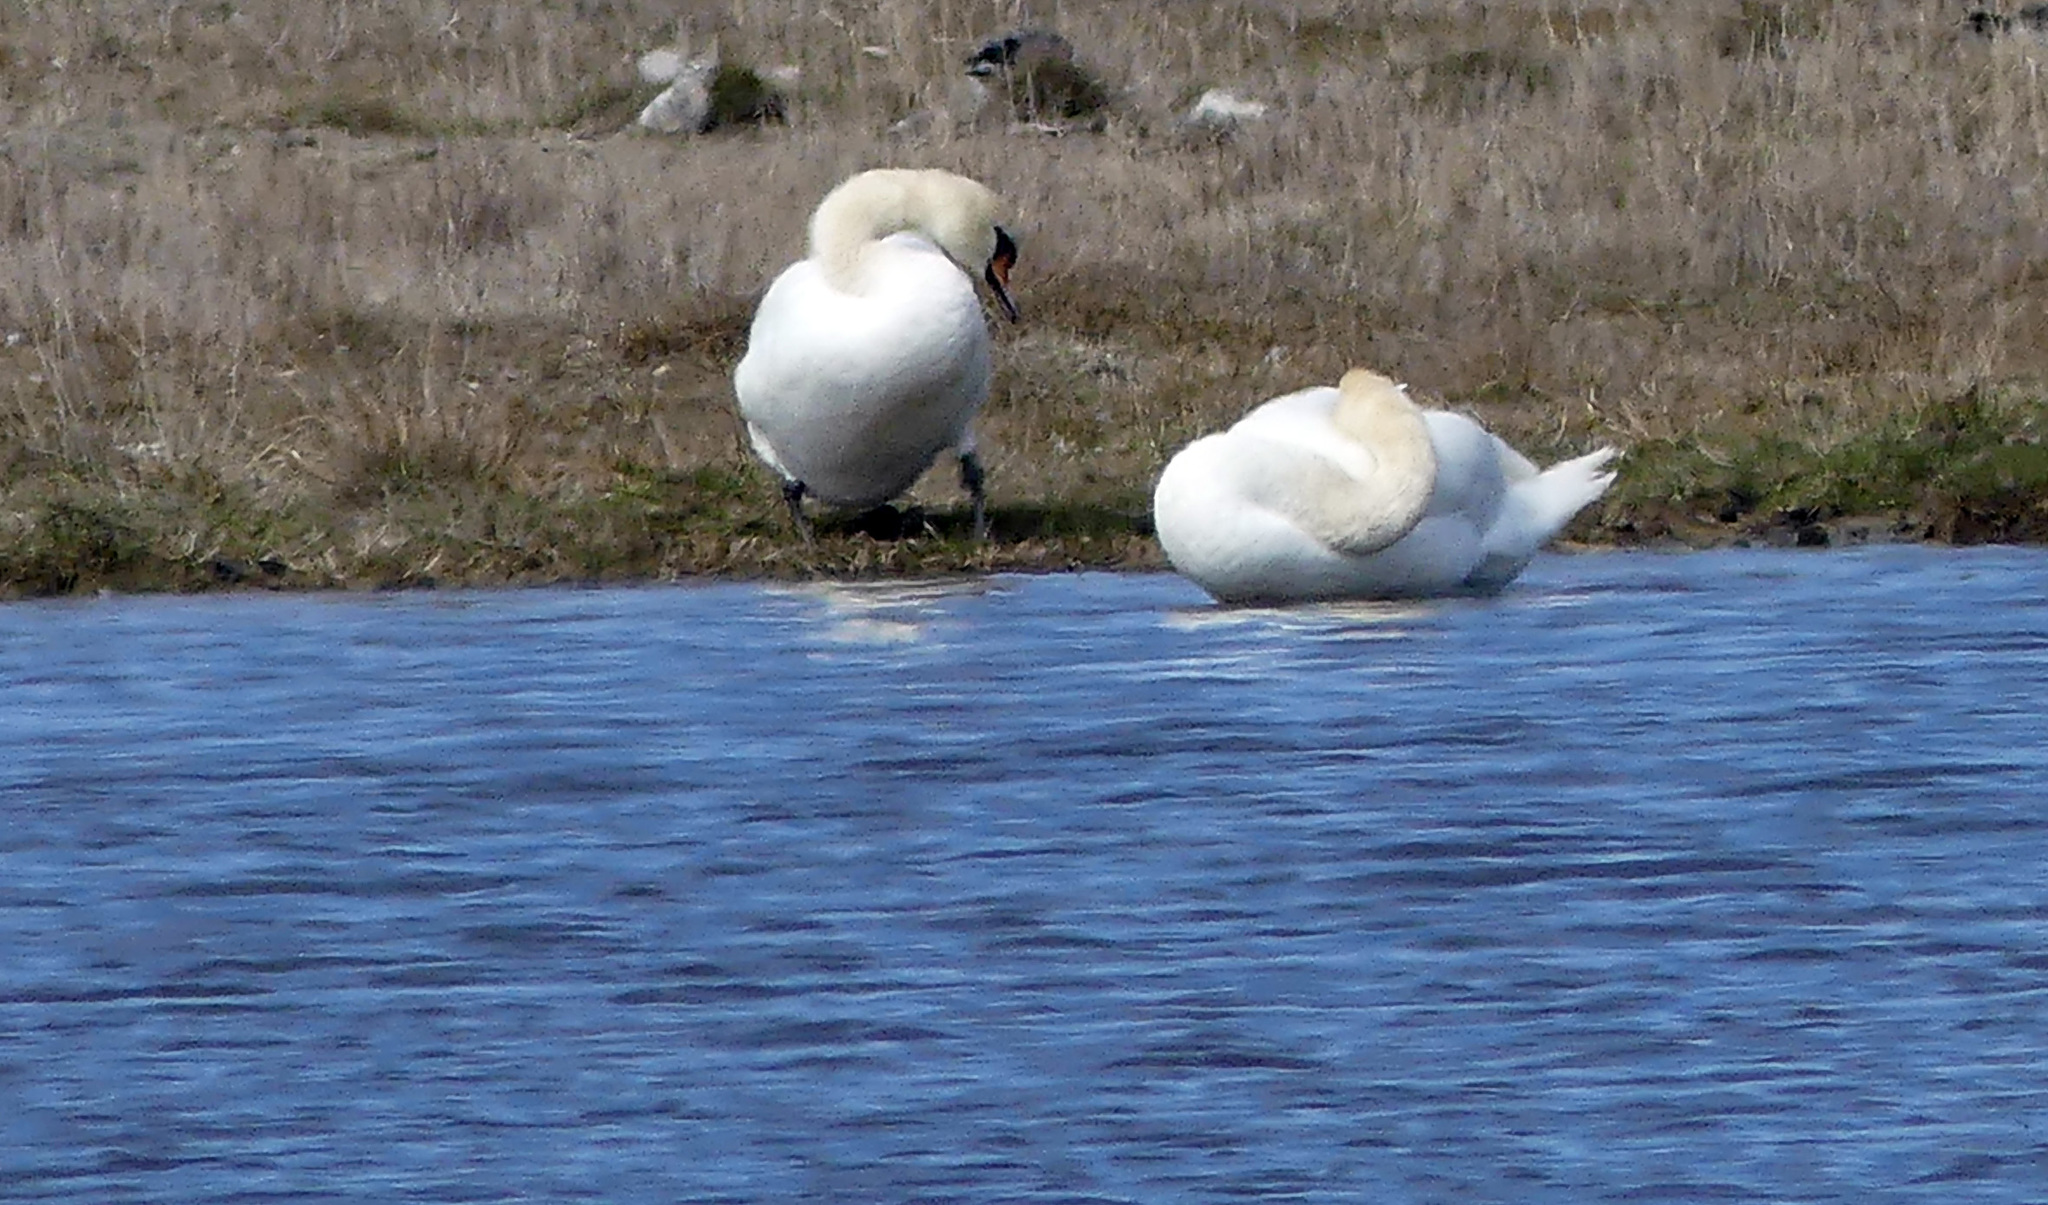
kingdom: Animalia
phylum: Chordata
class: Aves
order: Anseriformes
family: Anatidae
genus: Cygnus
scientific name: Cygnus olor
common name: Mute swan
